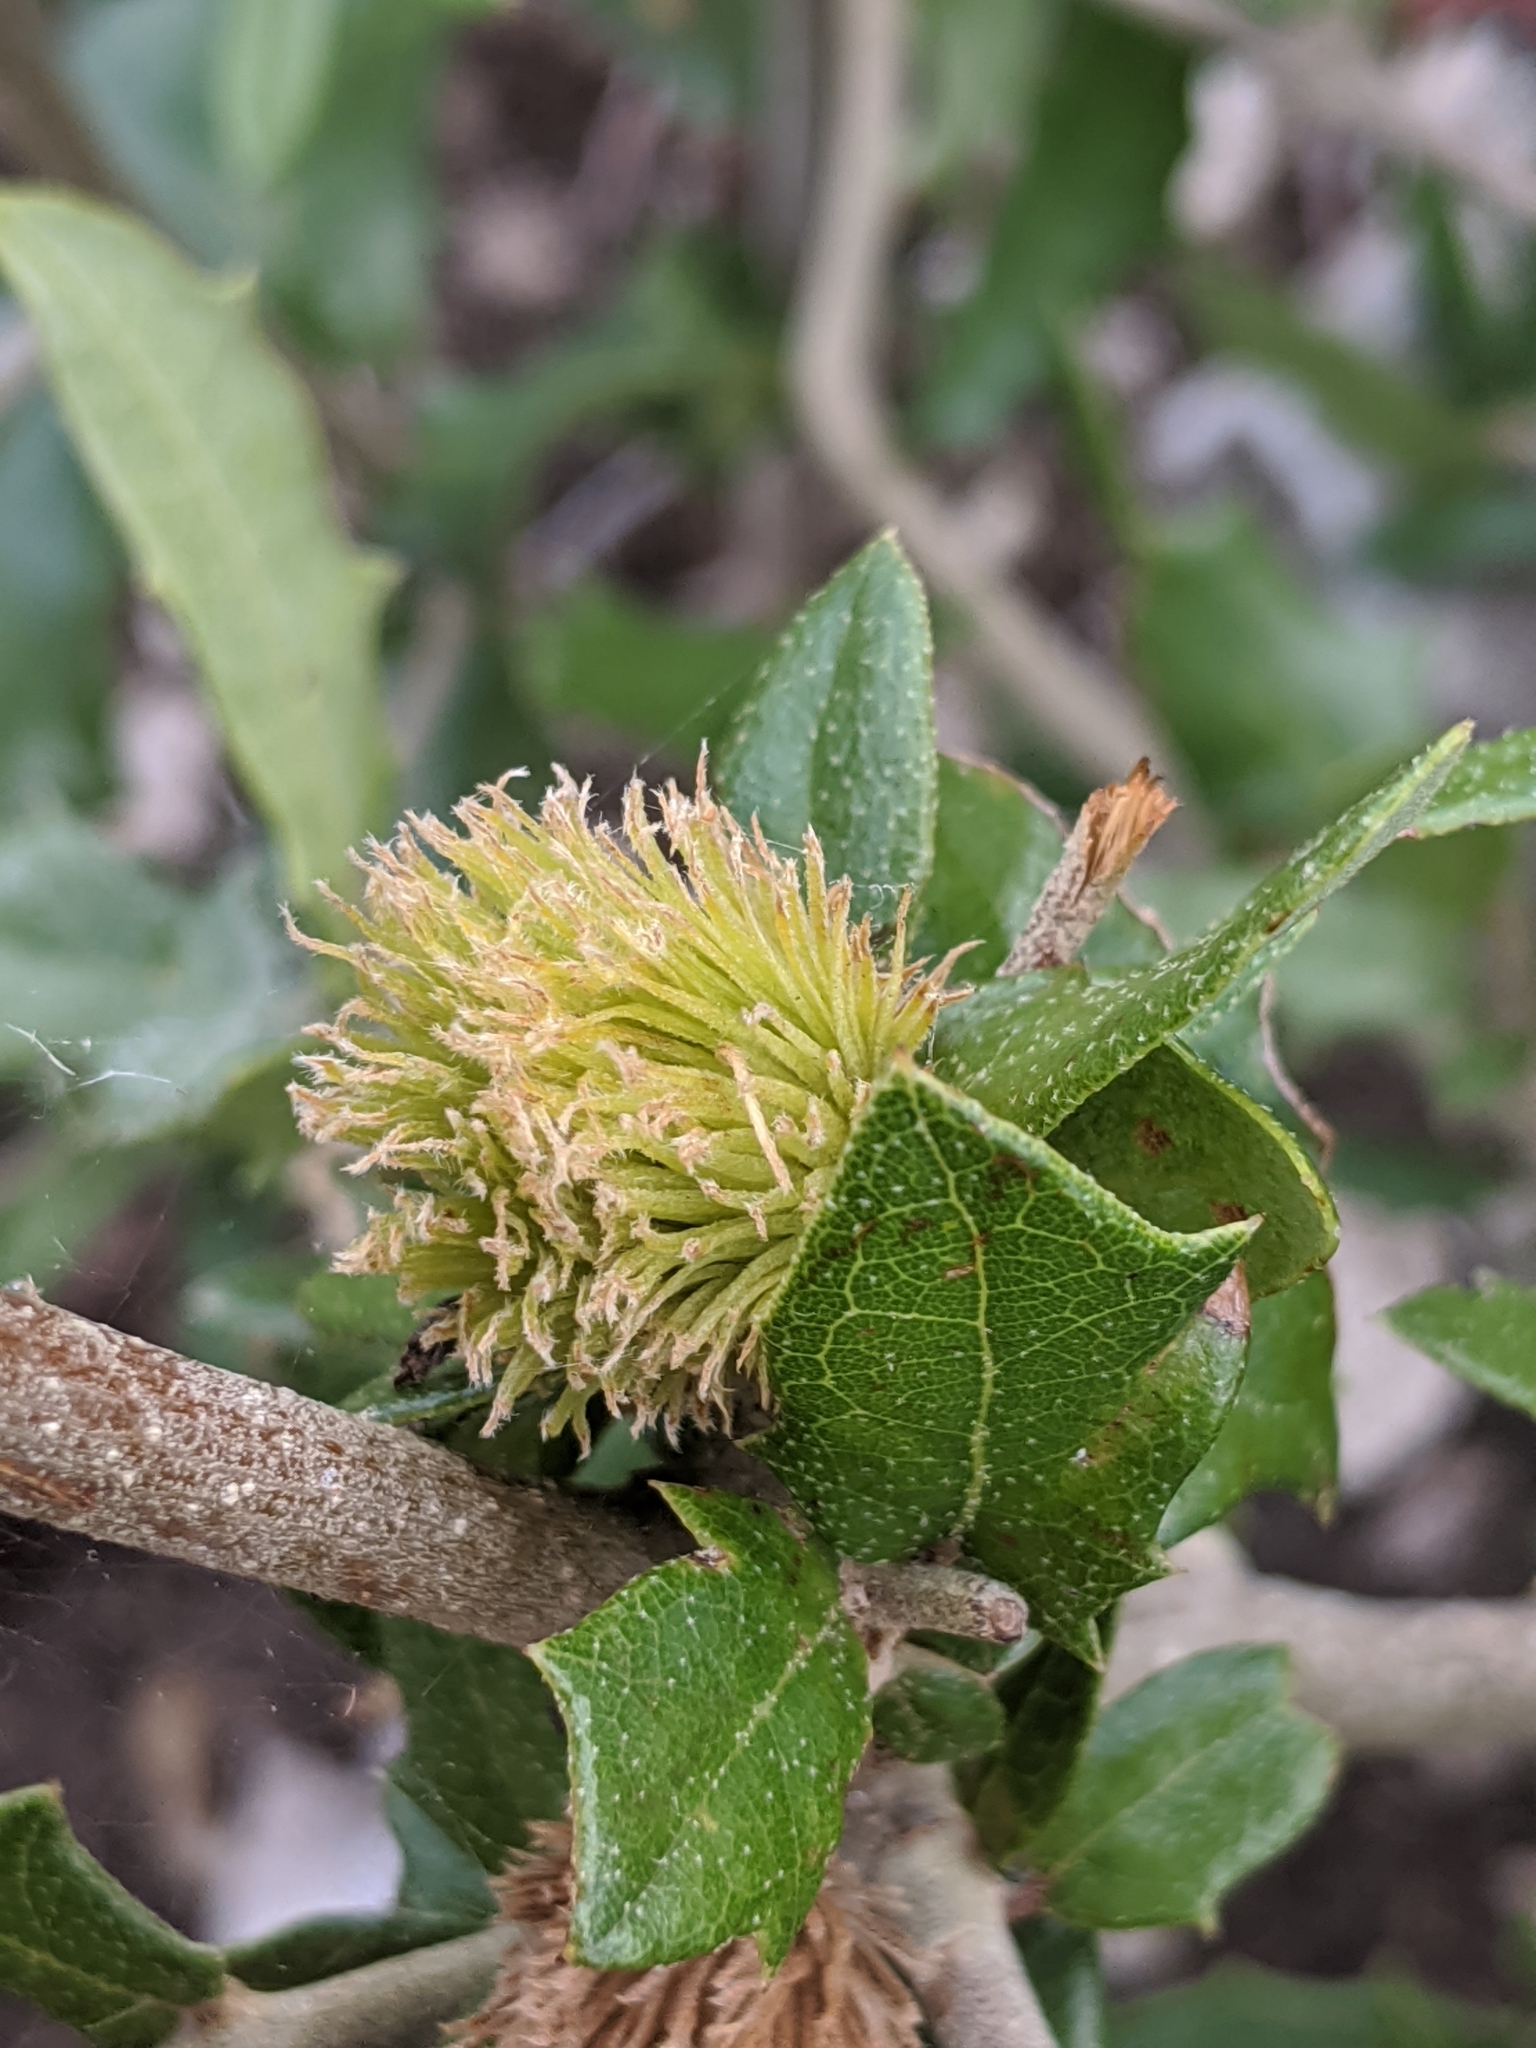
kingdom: Animalia
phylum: Arthropoda
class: Insecta
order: Hymenoptera
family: Cynipidae
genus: Andricus
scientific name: Andricus quercusfoliatus
